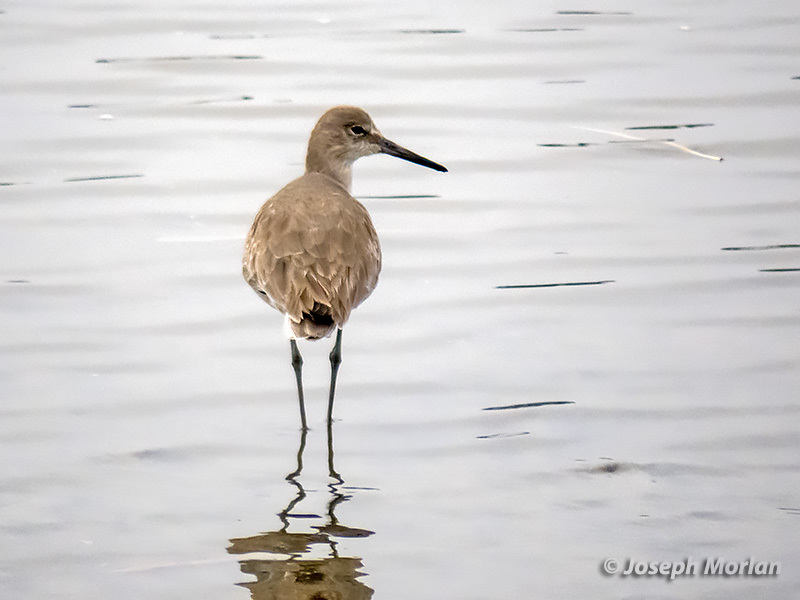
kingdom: Animalia
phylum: Chordata
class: Aves
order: Charadriiformes
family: Scolopacidae
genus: Tringa
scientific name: Tringa semipalmata
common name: Willet
